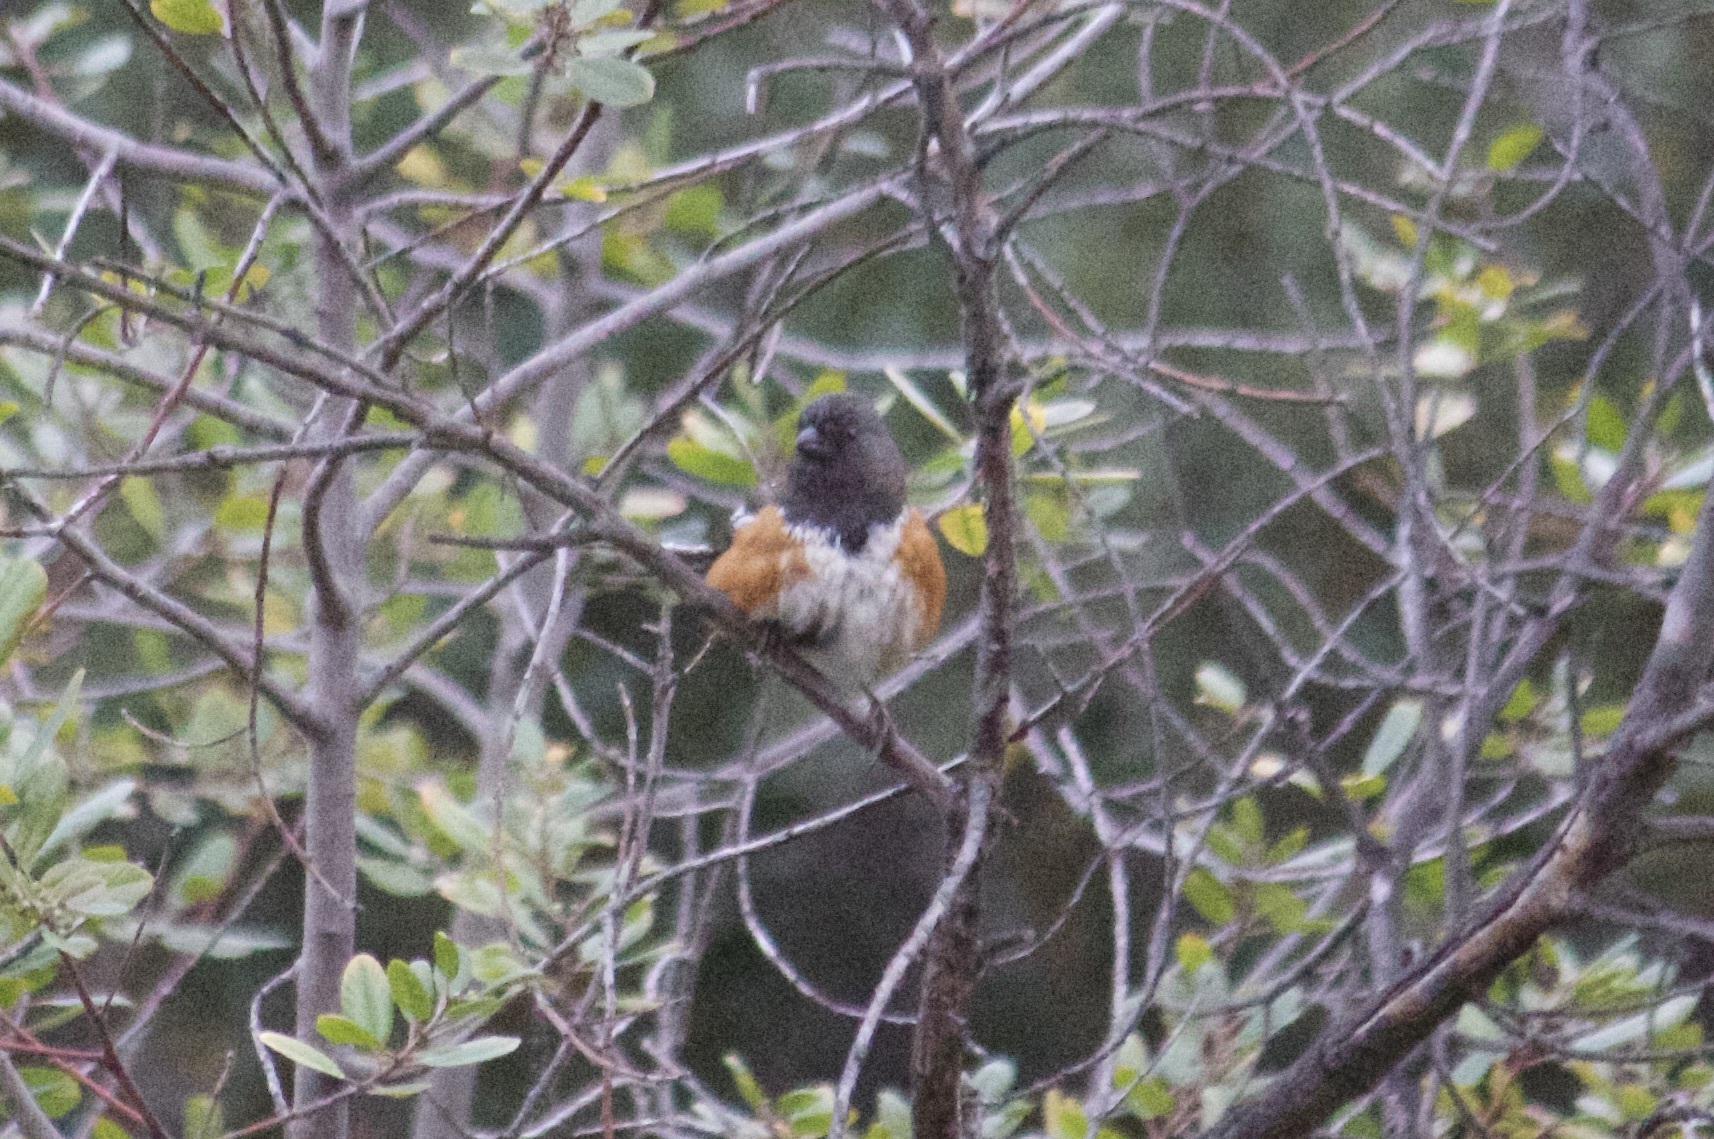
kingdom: Animalia
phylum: Chordata
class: Aves
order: Passeriformes
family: Passerellidae
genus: Pipilo
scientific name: Pipilo maculatus
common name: Spotted towhee
